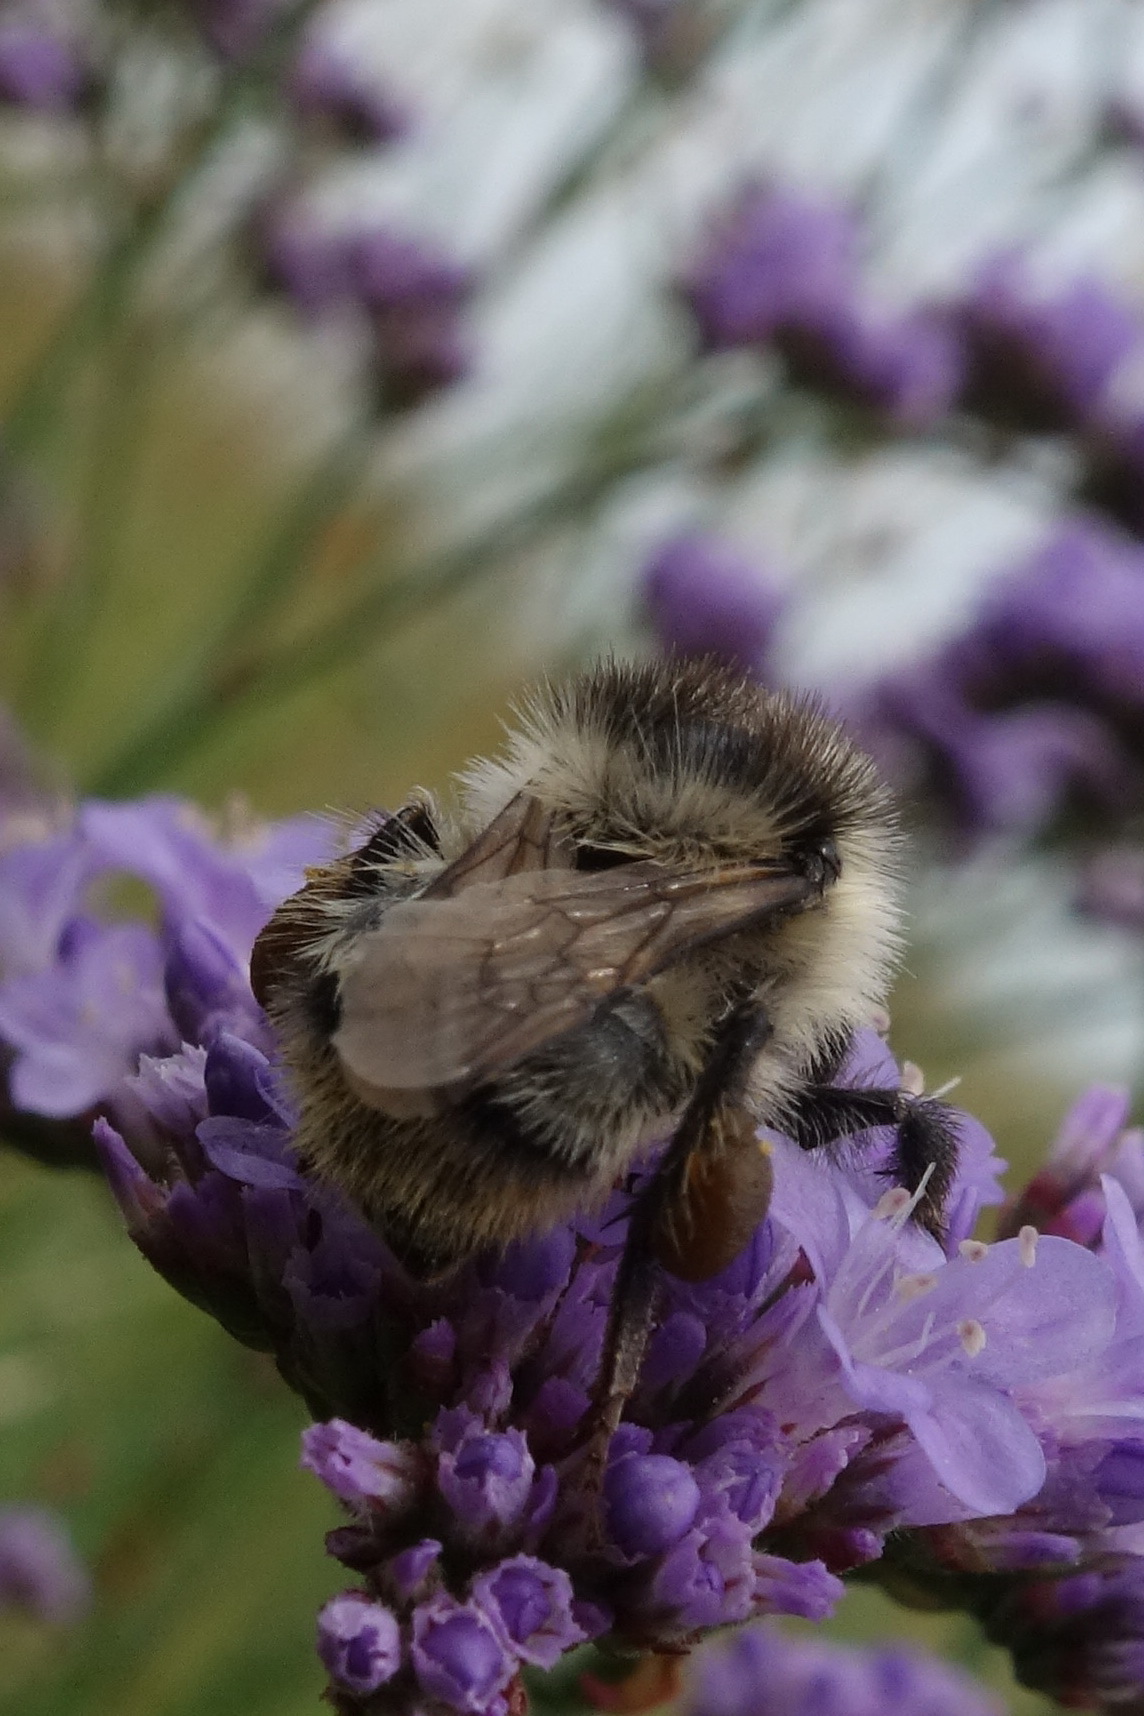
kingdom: Animalia
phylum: Arthropoda
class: Insecta
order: Hymenoptera
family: Apidae
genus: Bombus
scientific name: Bombus sylvarum
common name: Shrill carder bee
